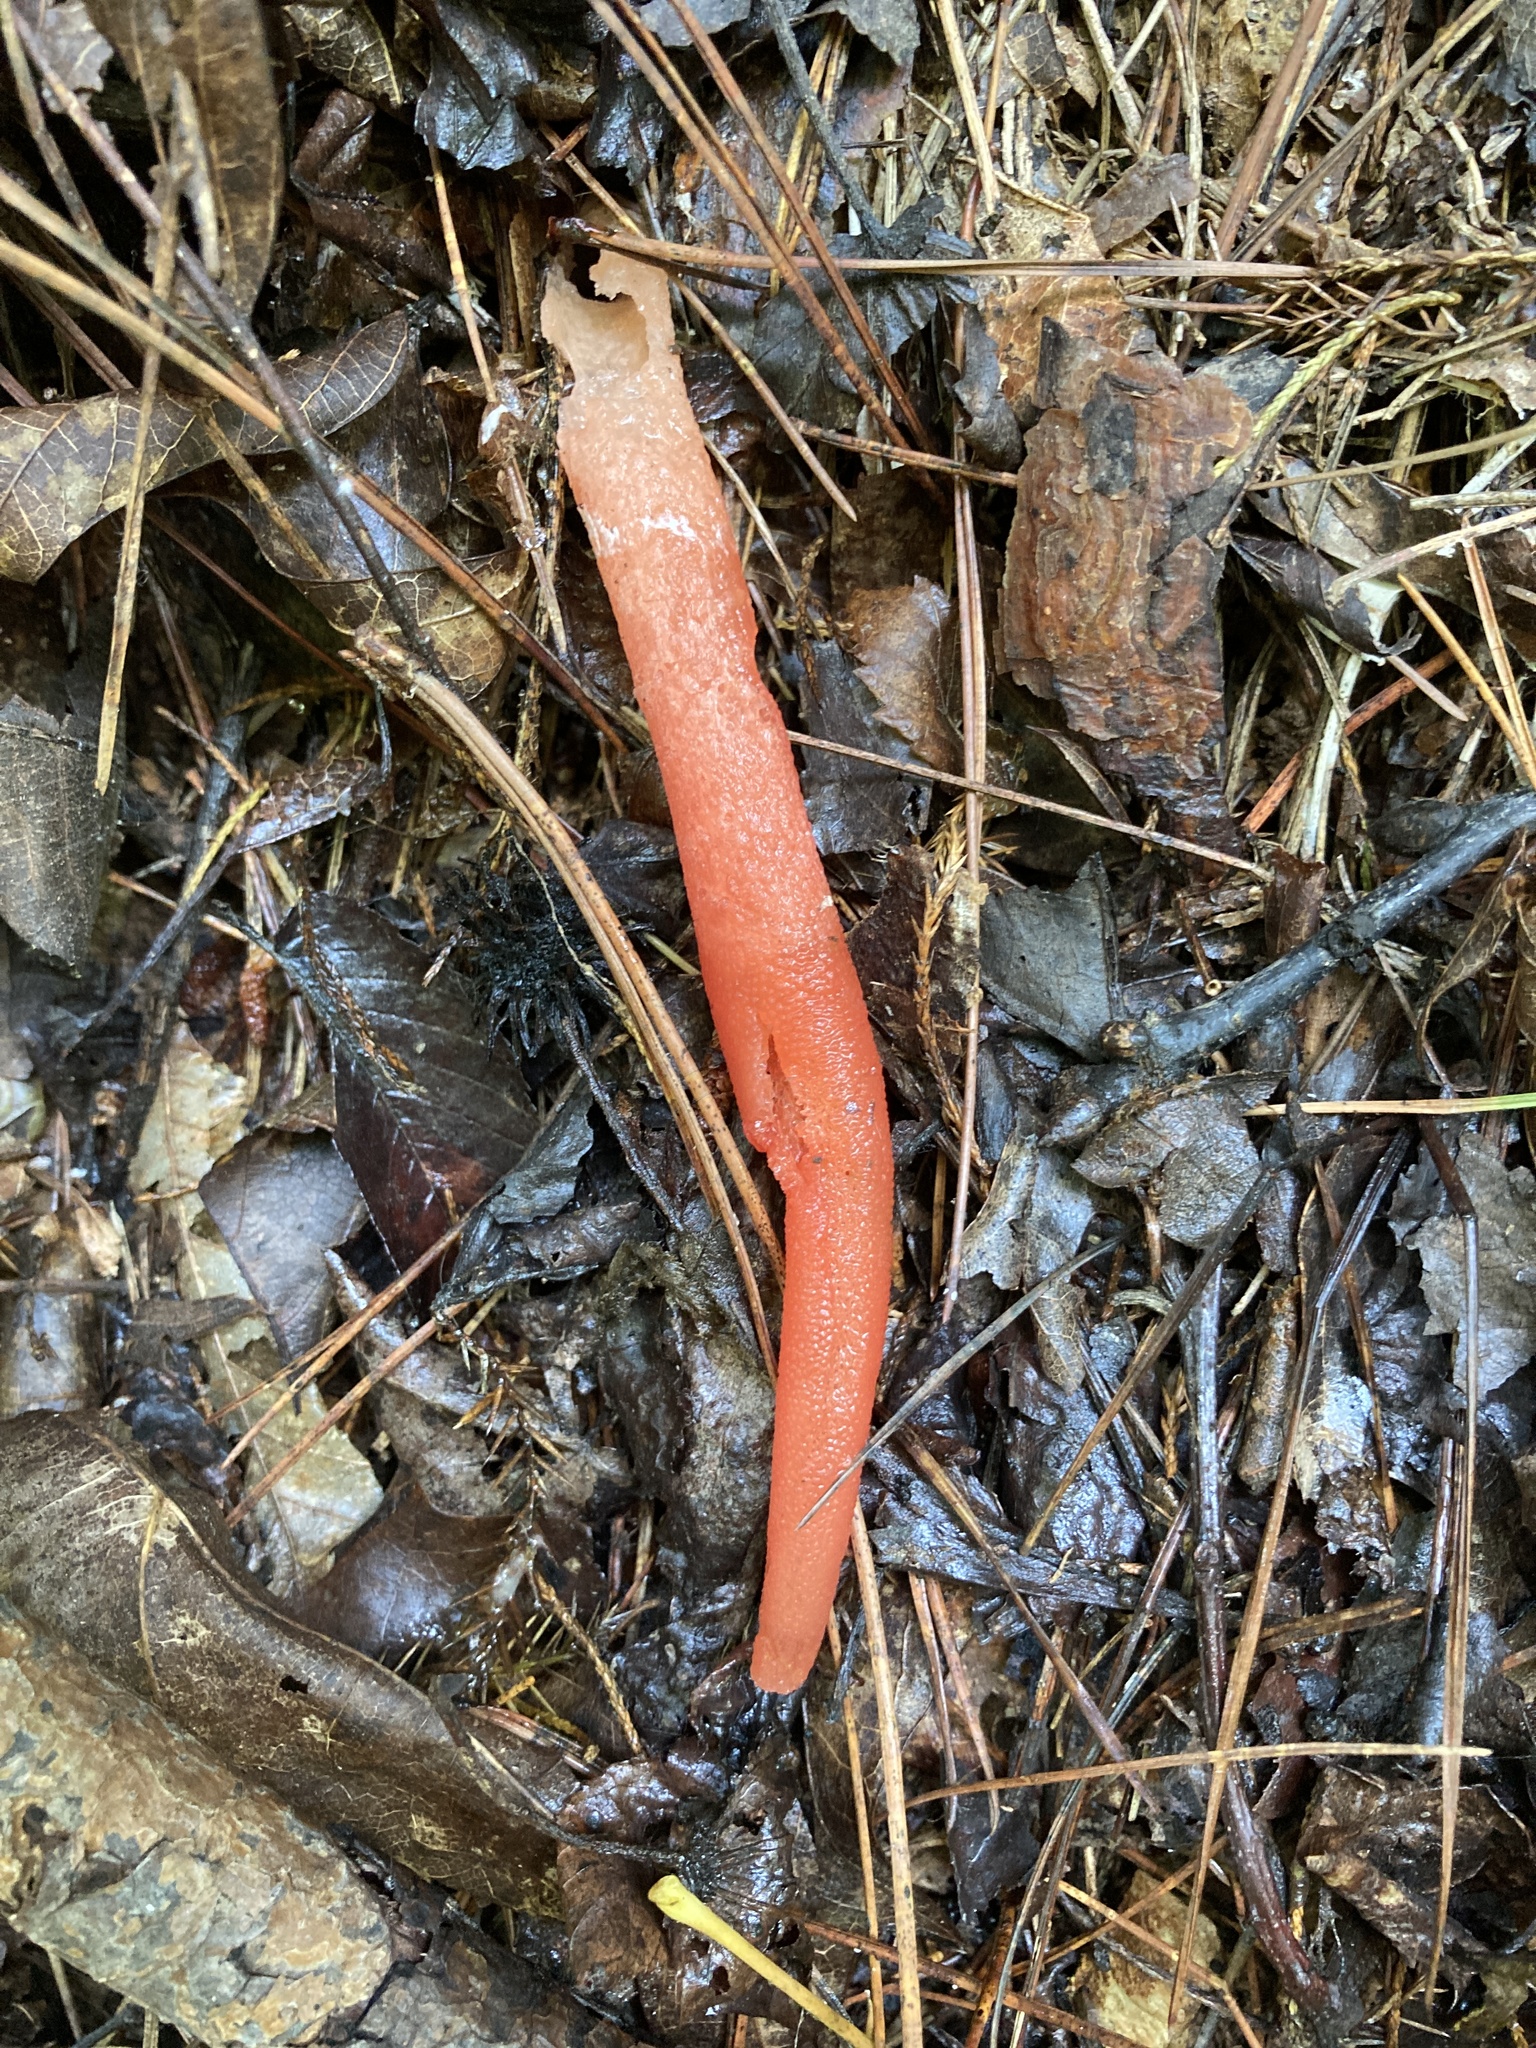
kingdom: Fungi
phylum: Basidiomycota
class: Agaricomycetes
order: Phallales
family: Phallaceae
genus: Mutinus
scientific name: Mutinus elegans
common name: Devil's dipstick
